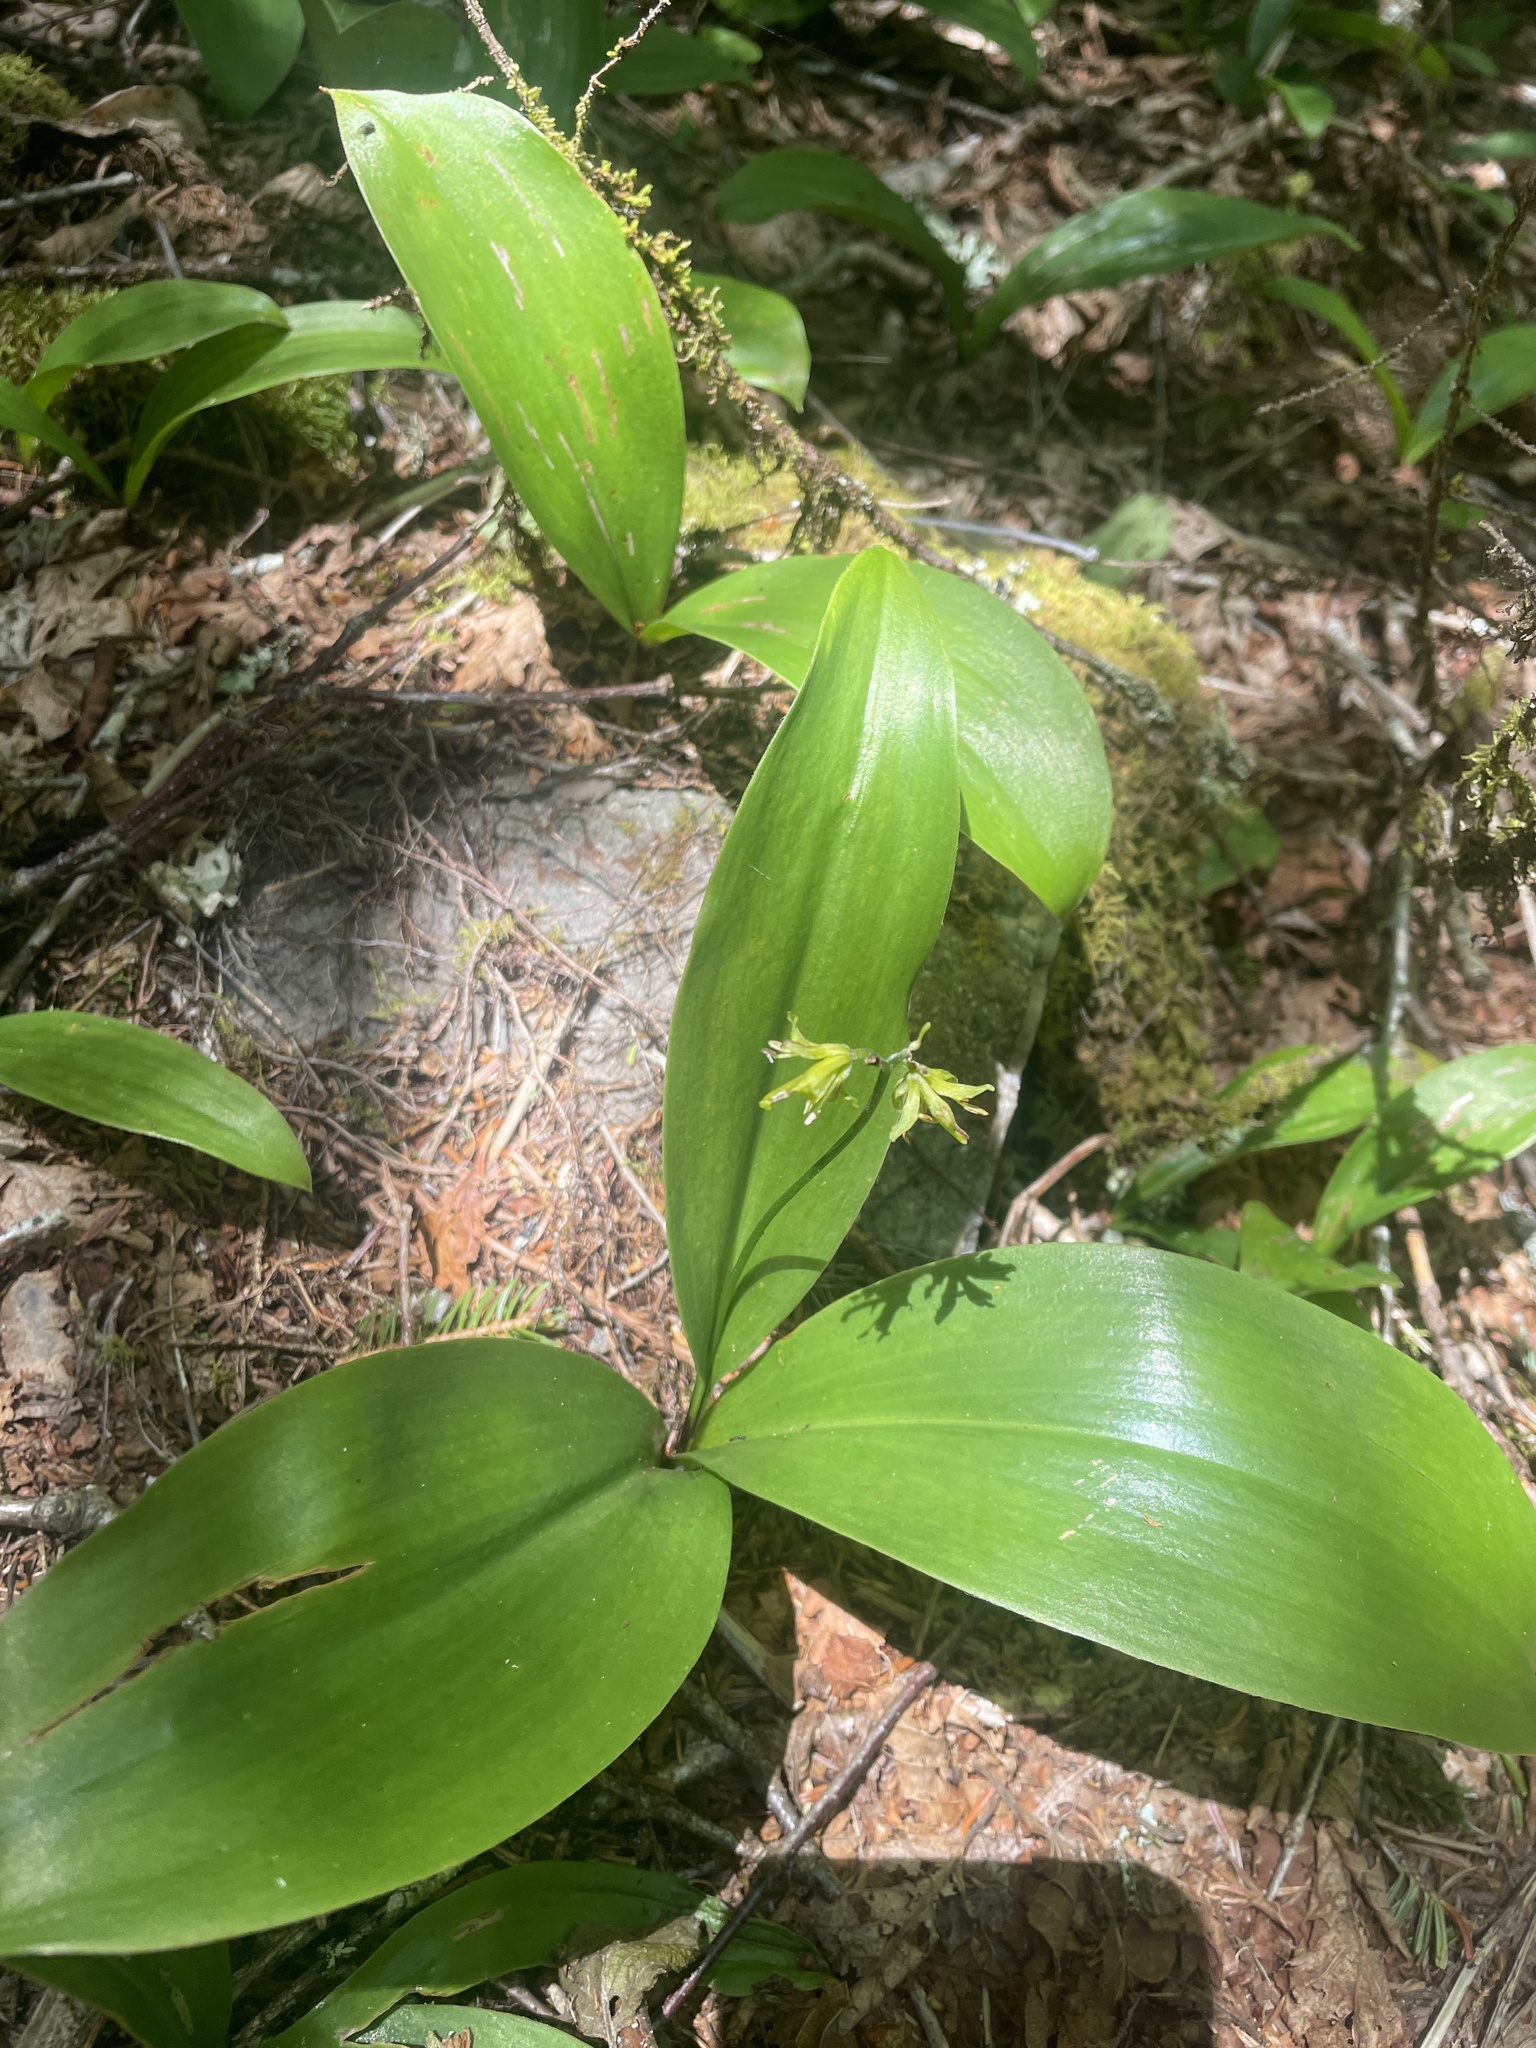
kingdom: Plantae
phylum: Tracheophyta
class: Liliopsida
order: Liliales
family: Liliaceae
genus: Clintonia
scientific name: Clintonia borealis
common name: Yellow clintonia
